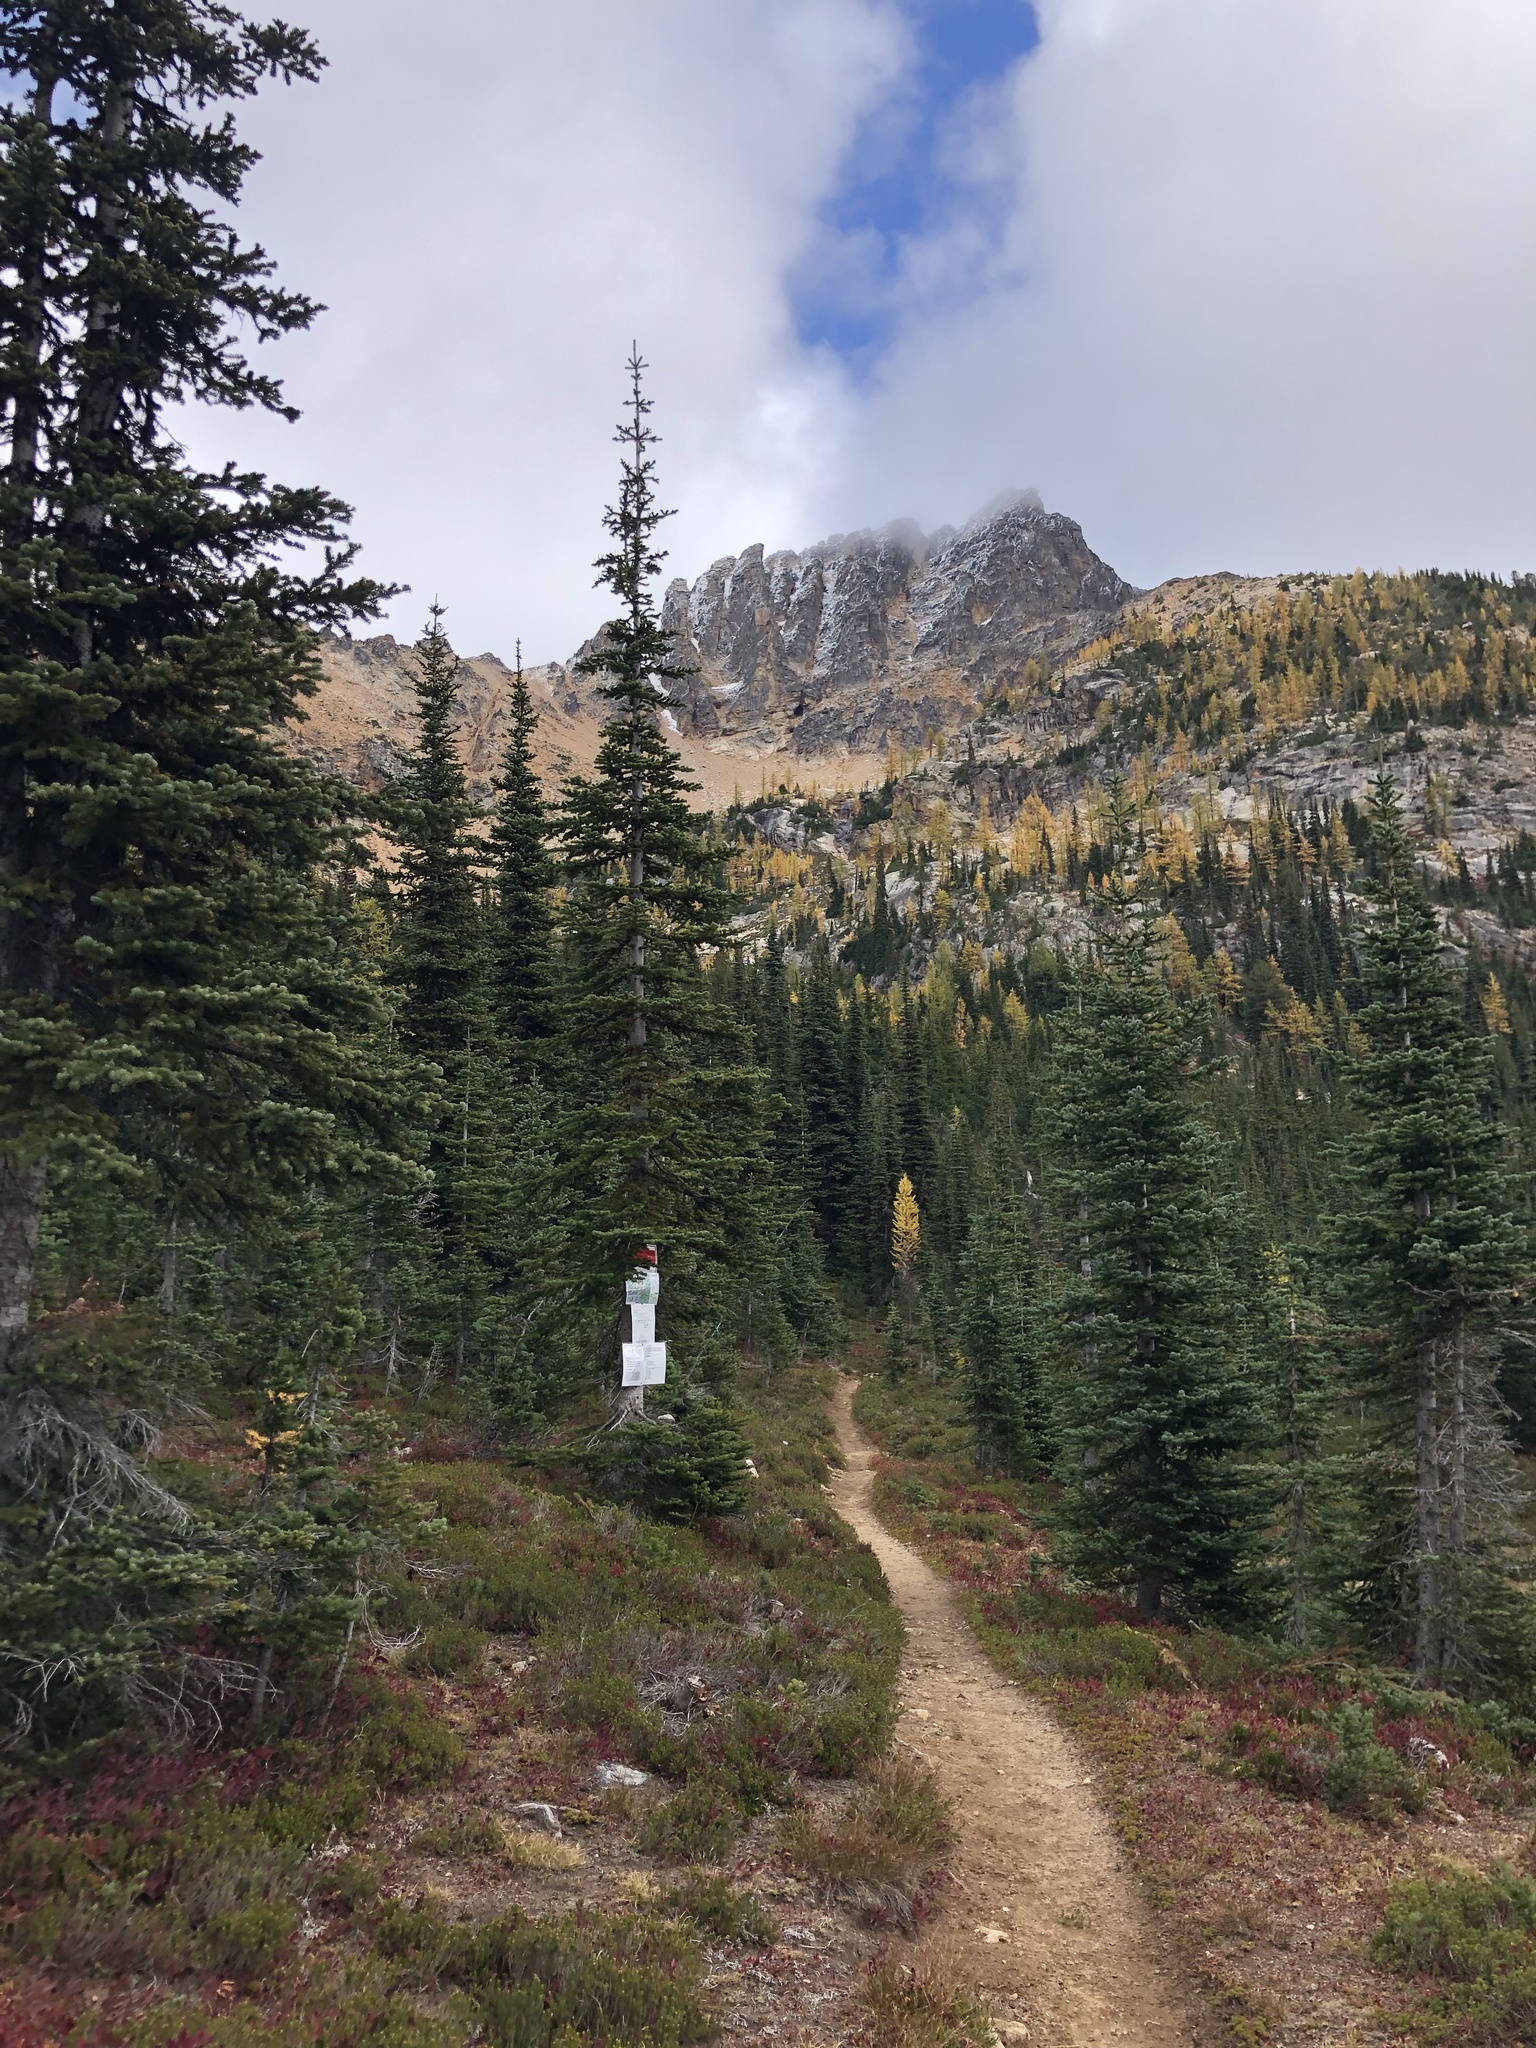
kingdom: Plantae
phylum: Tracheophyta
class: Pinopsida
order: Pinales
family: Pinaceae
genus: Abies
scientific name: Abies lasiocarpa
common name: Subalpine fir
